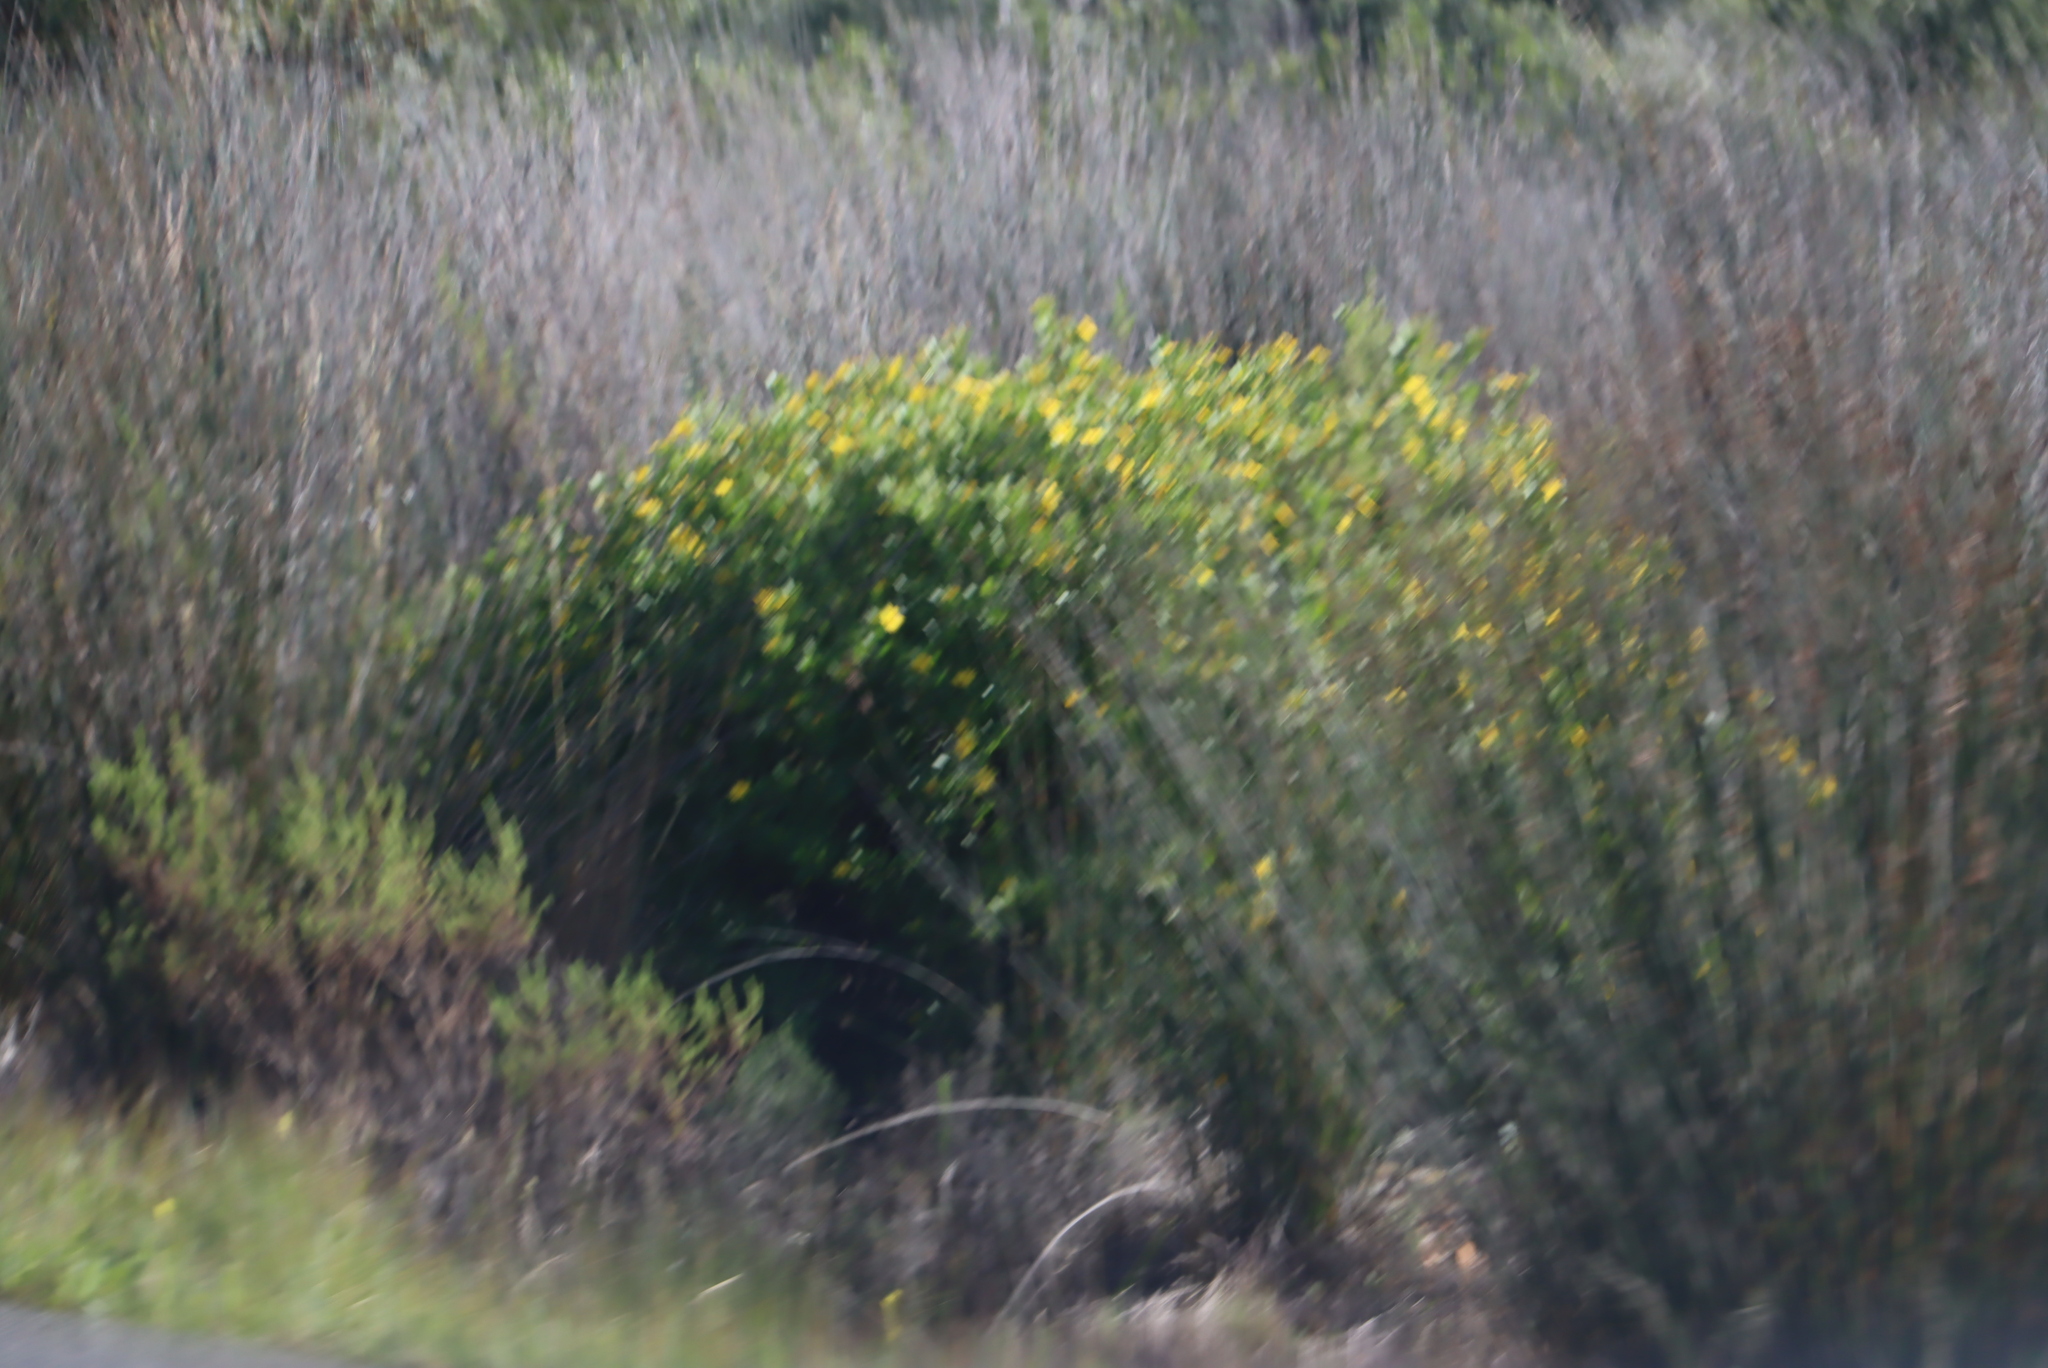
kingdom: Plantae
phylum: Tracheophyta
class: Magnoliopsida
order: Asterales
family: Asteraceae
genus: Osteospermum
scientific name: Osteospermum moniliferum
